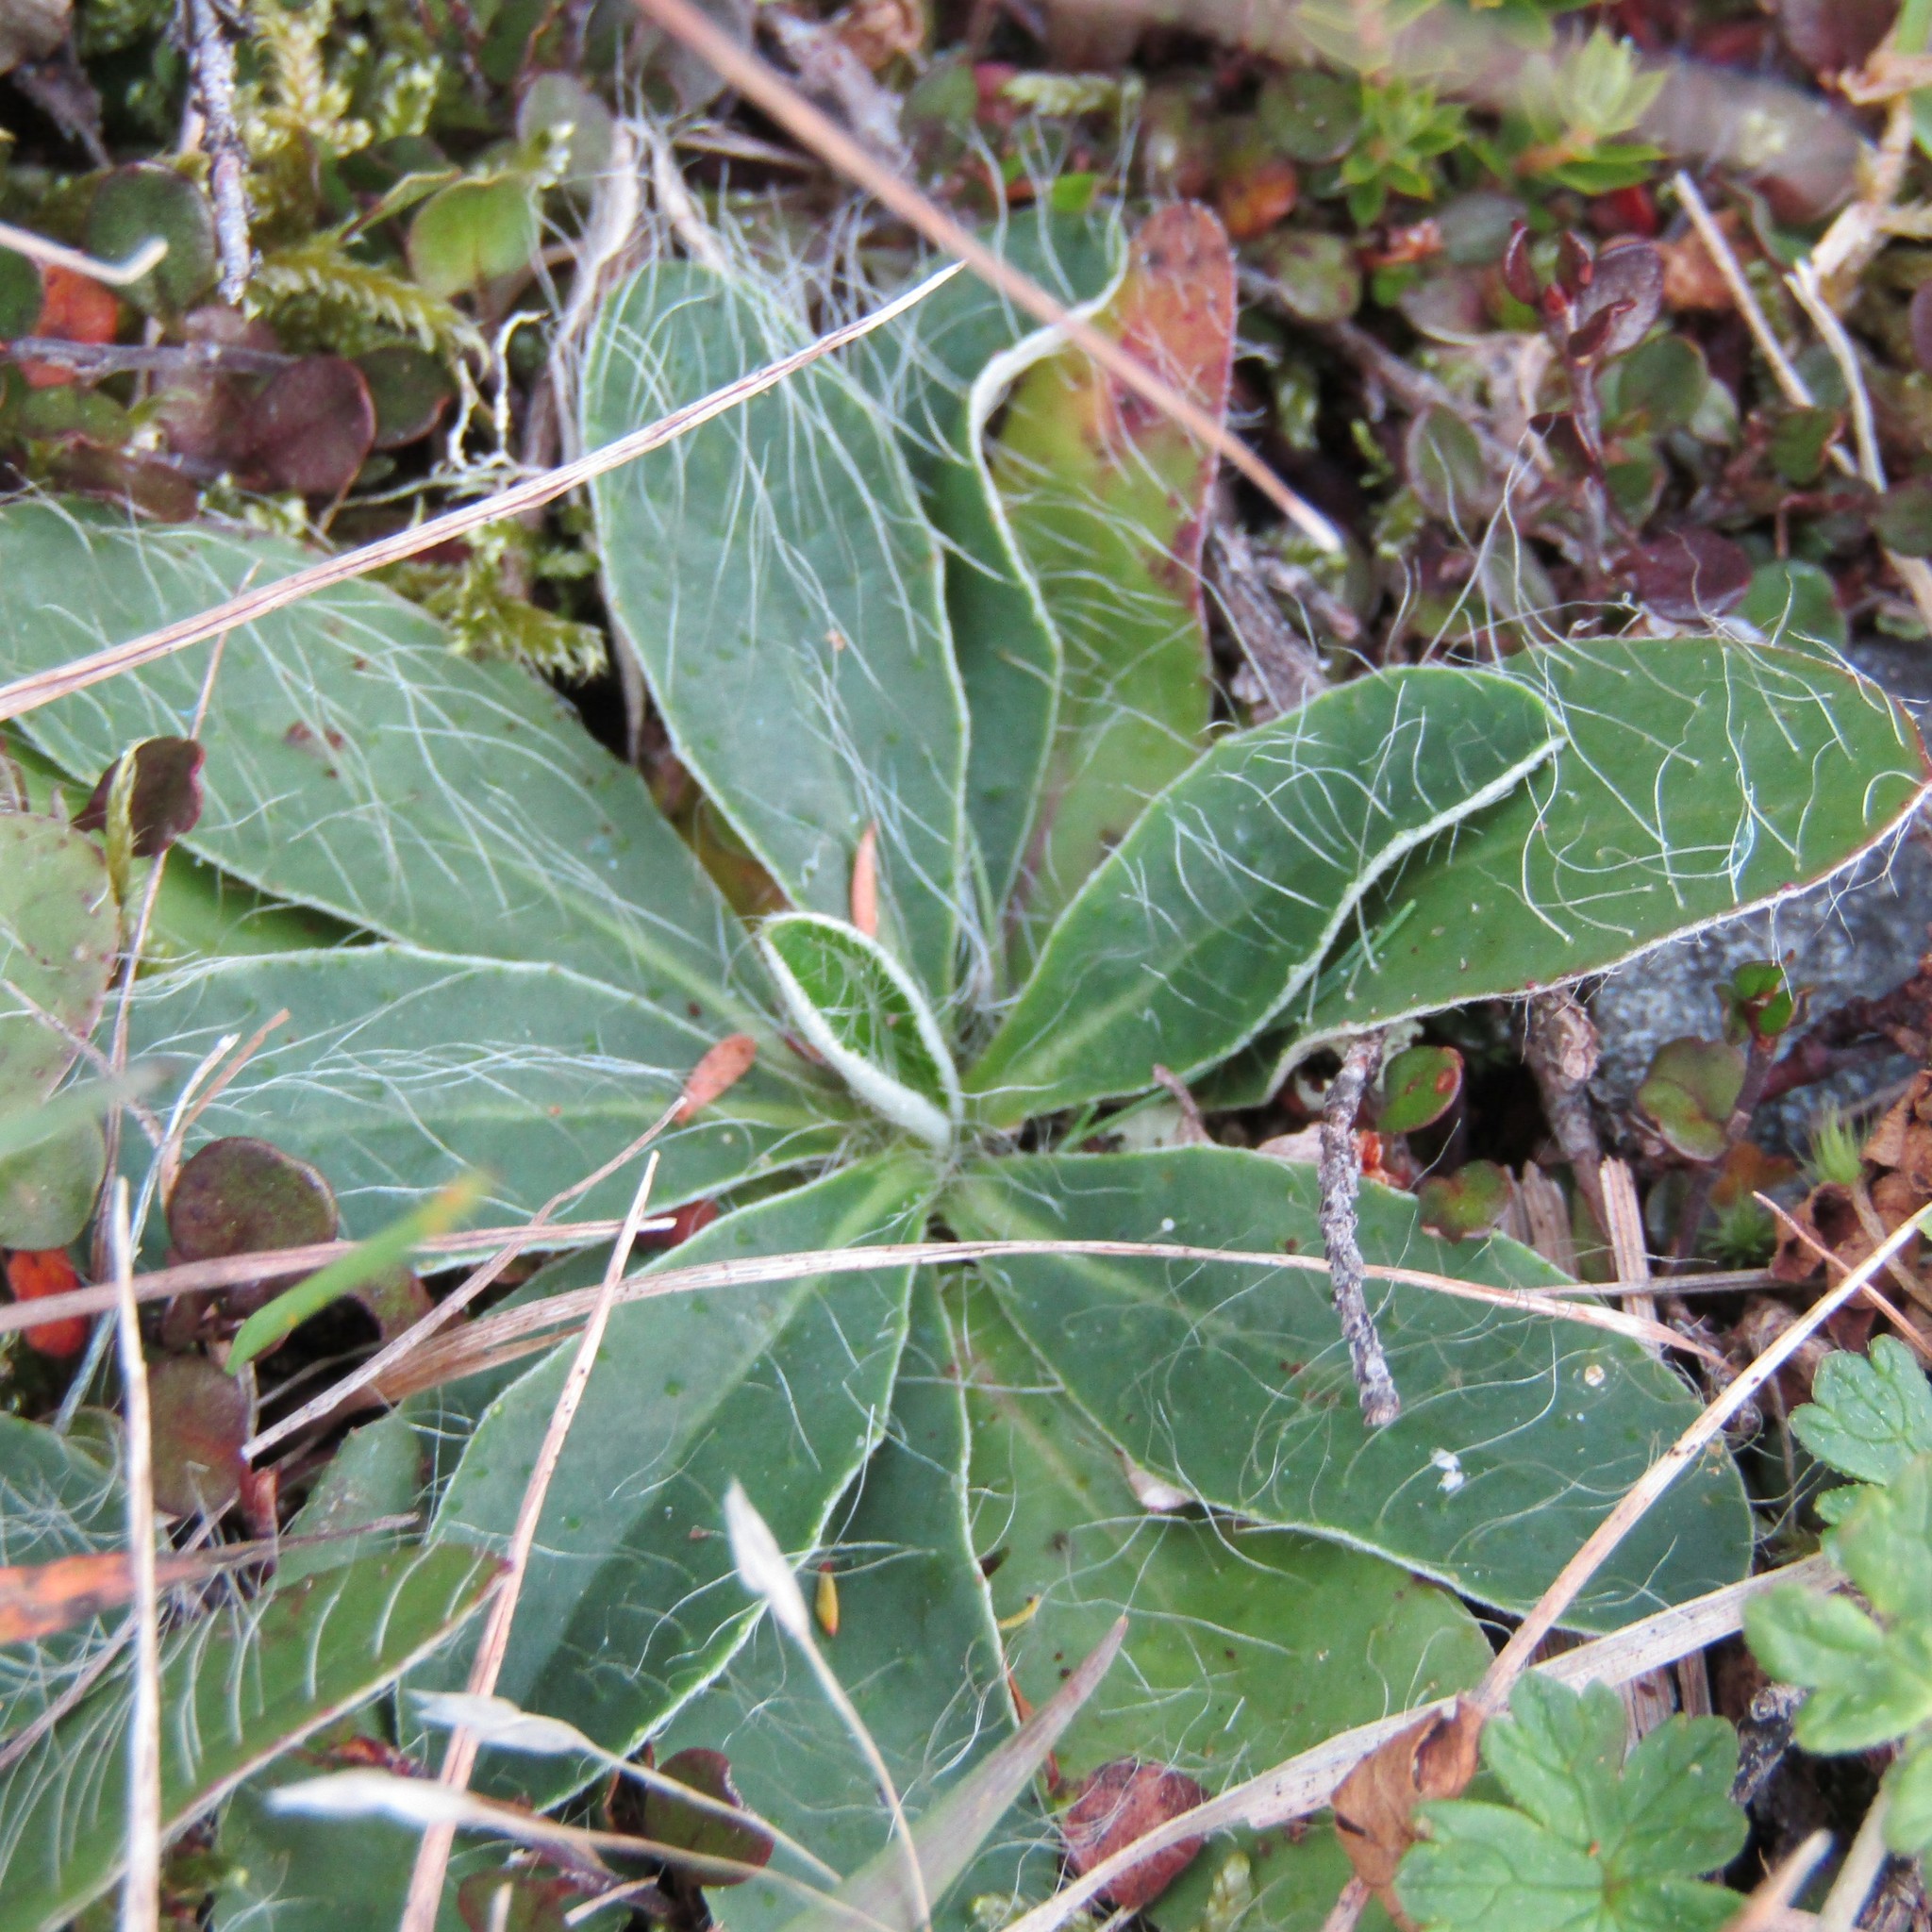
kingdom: Plantae
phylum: Tracheophyta
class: Magnoliopsida
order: Asterales
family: Asteraceae
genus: Pilosella
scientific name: Pilosella officinarum
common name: Mouse-ear hawkweed
